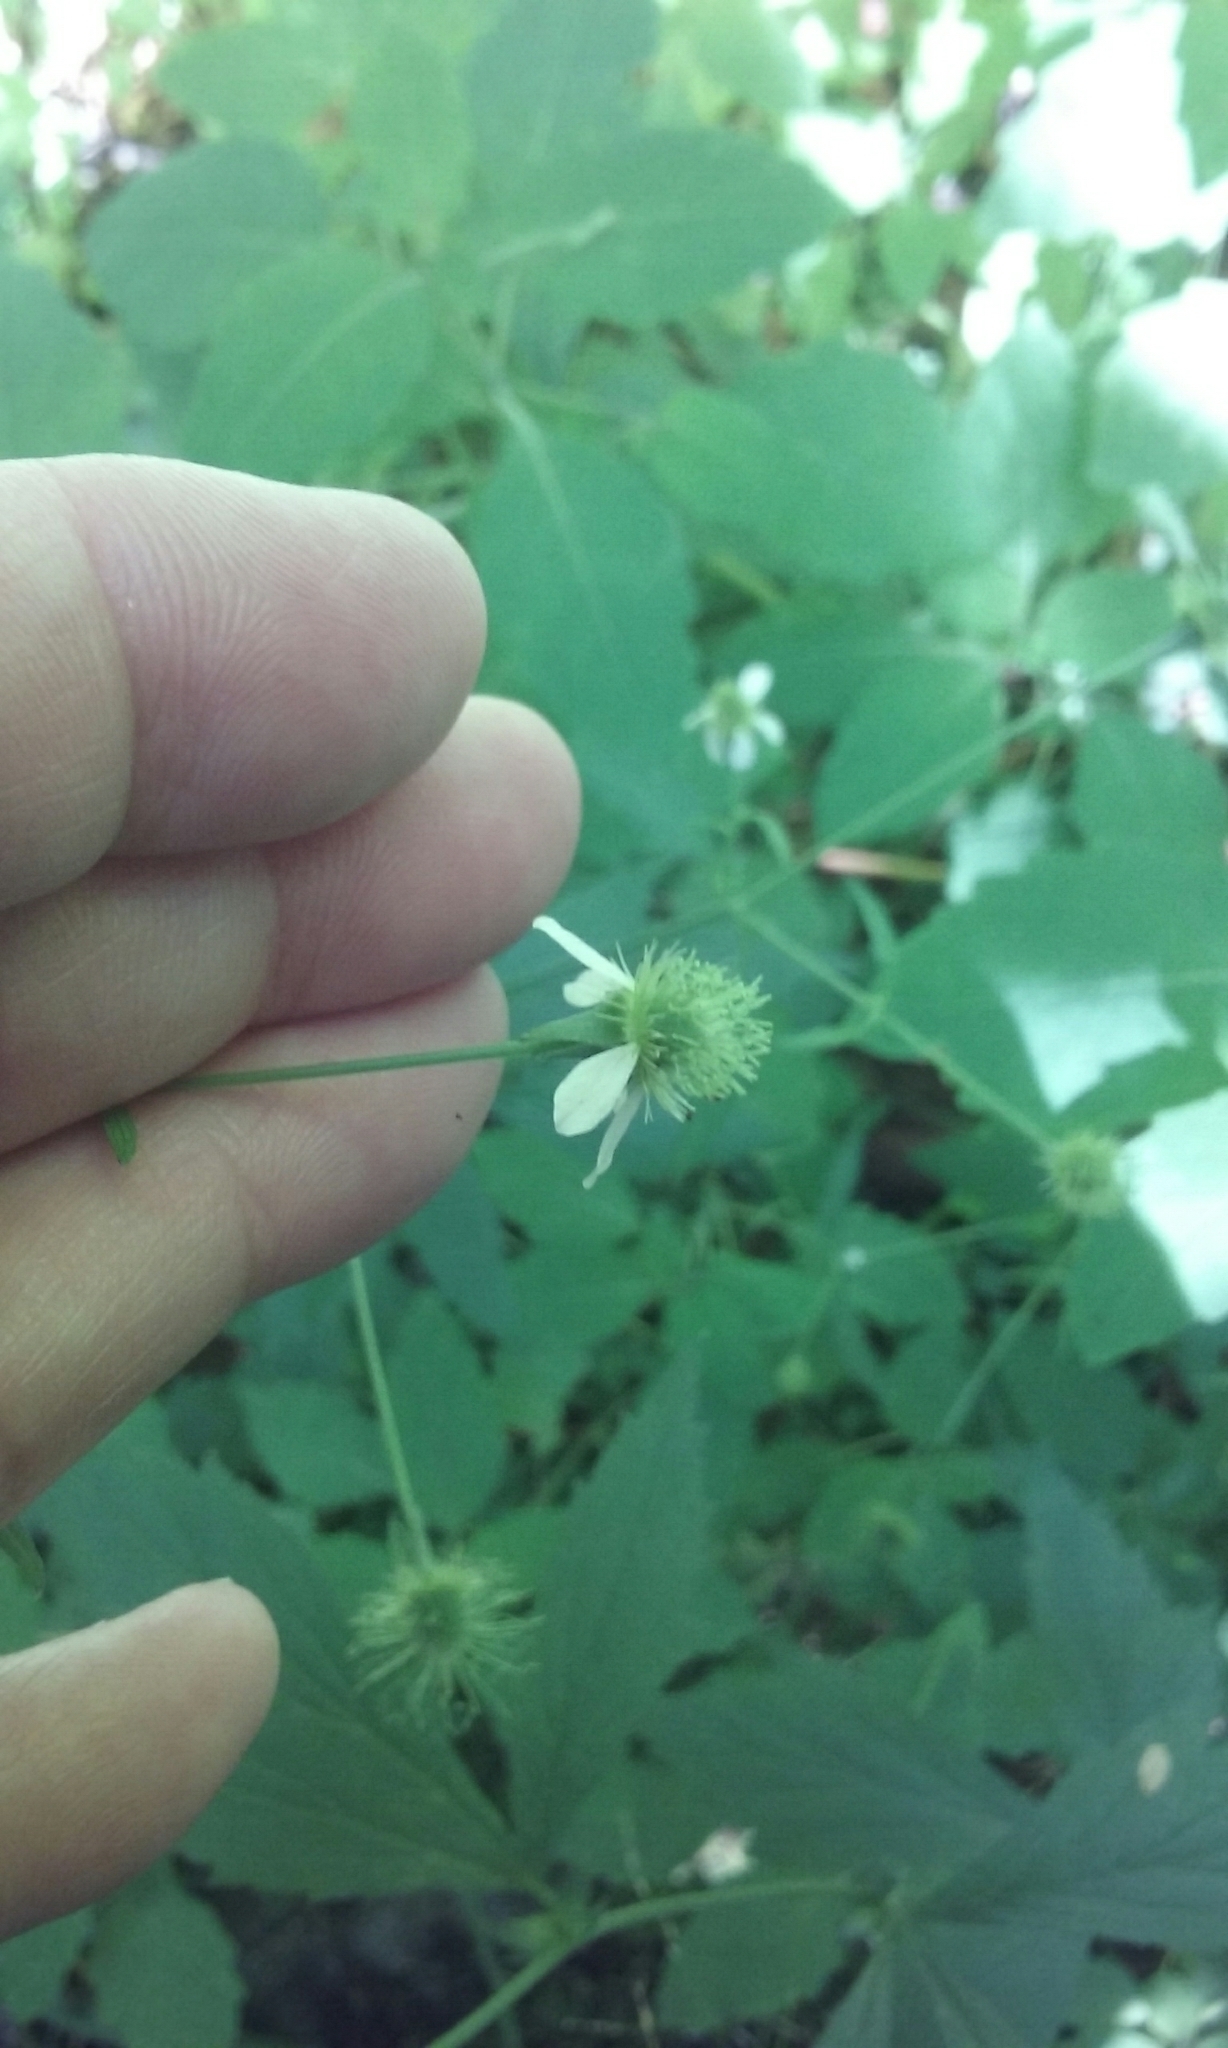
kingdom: Plantae
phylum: Tracheophyta
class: Magnoliopsida
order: Rosales
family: Rosaceae
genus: Geum
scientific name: Geum canadense
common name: White avens
